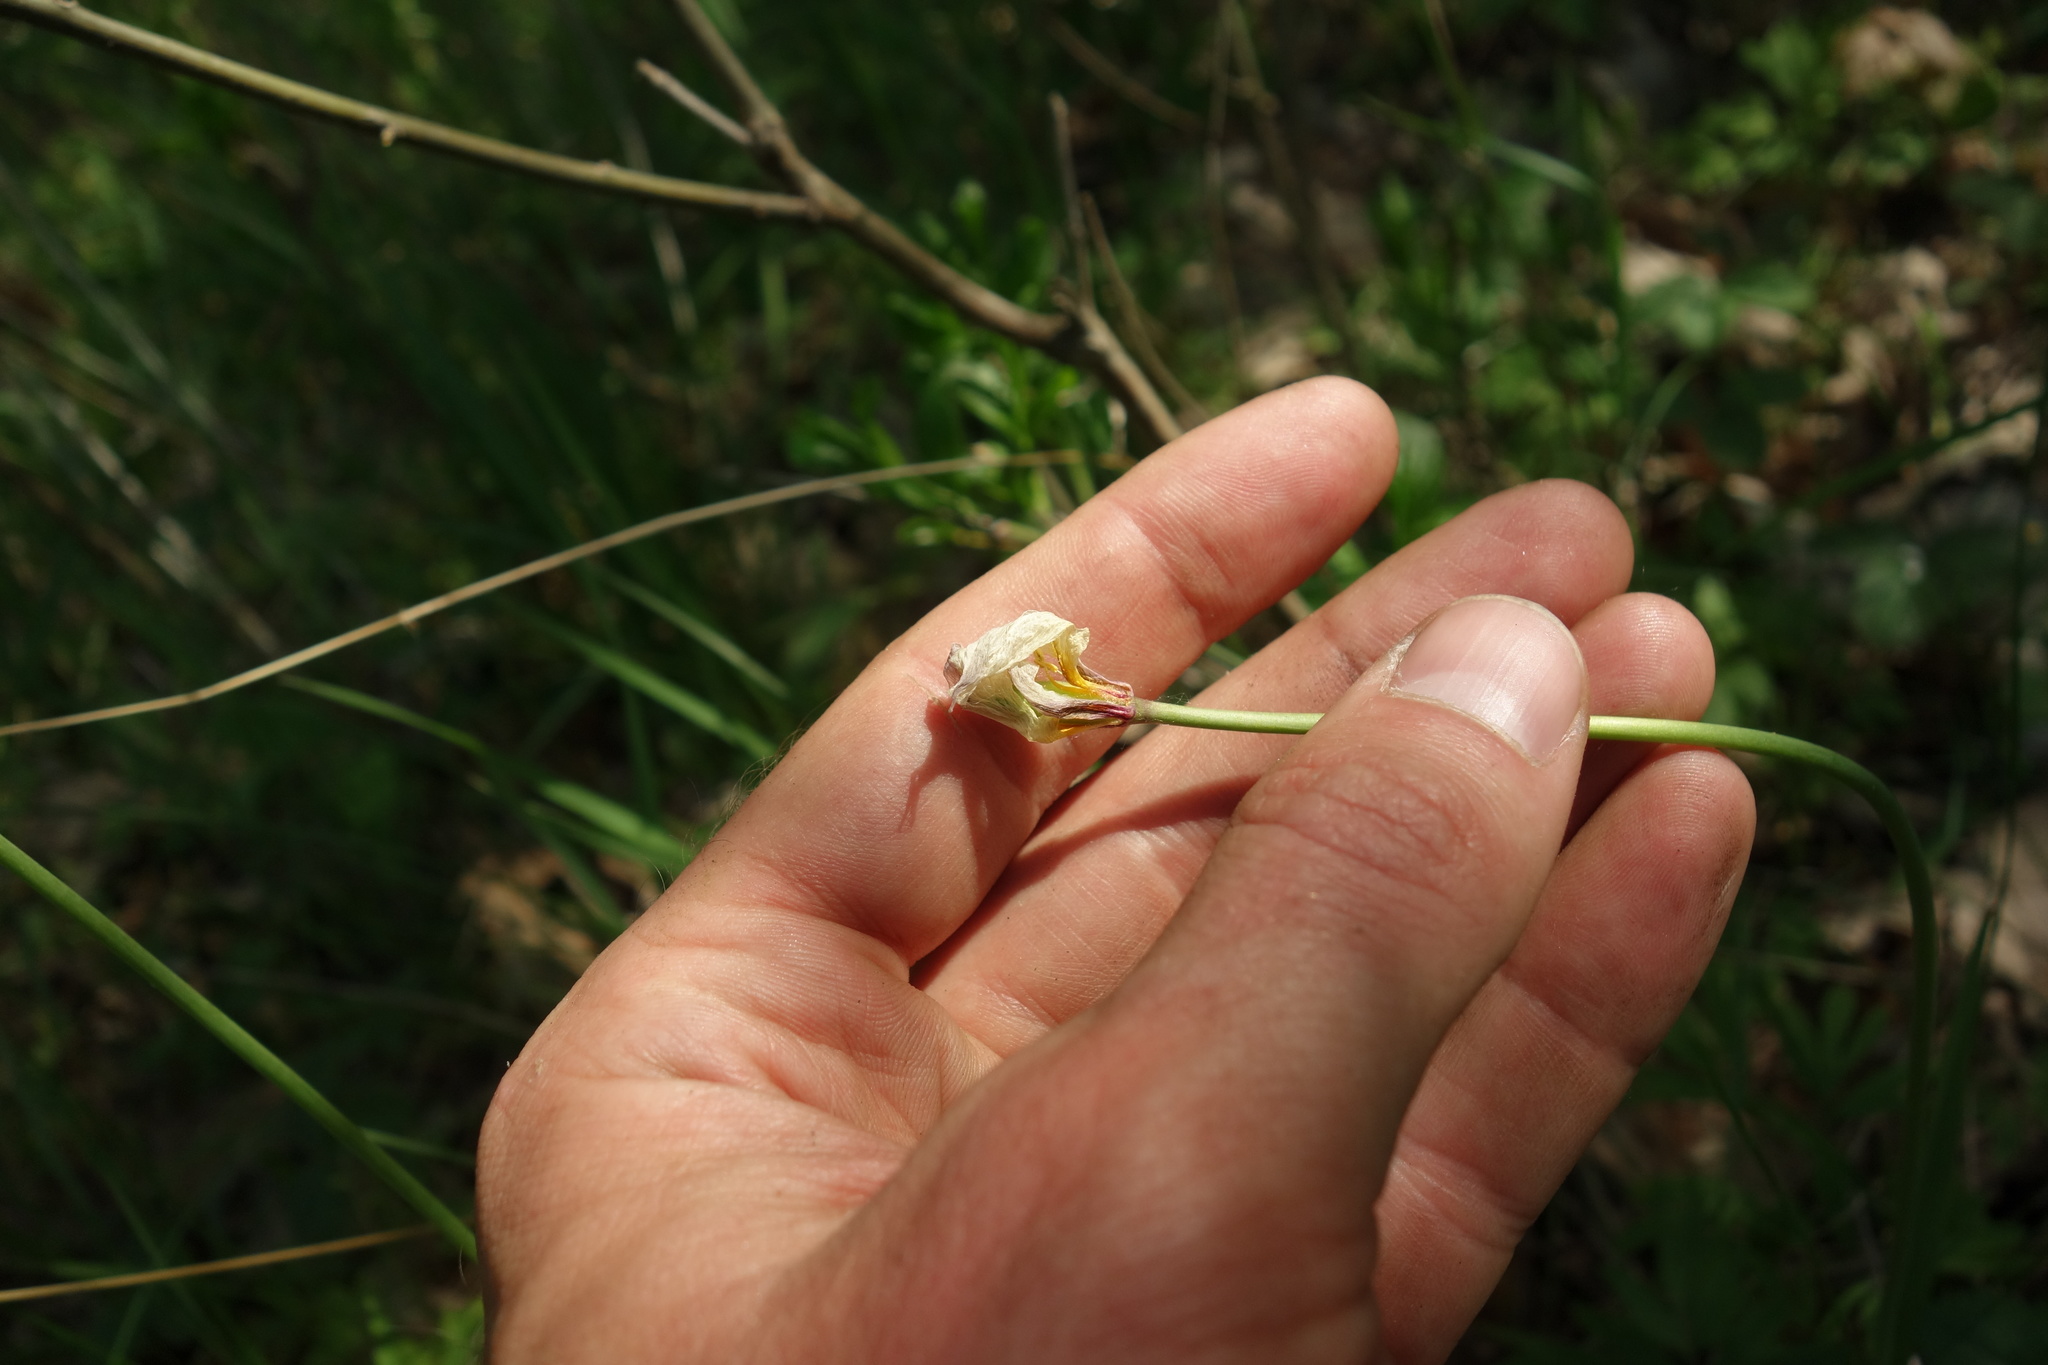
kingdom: Plantae
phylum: Tracheophyta
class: Liliopsida
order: Liliales
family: Liliaceae
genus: Tulipa
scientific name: Tulipa sylvestris
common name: Wild tulip
